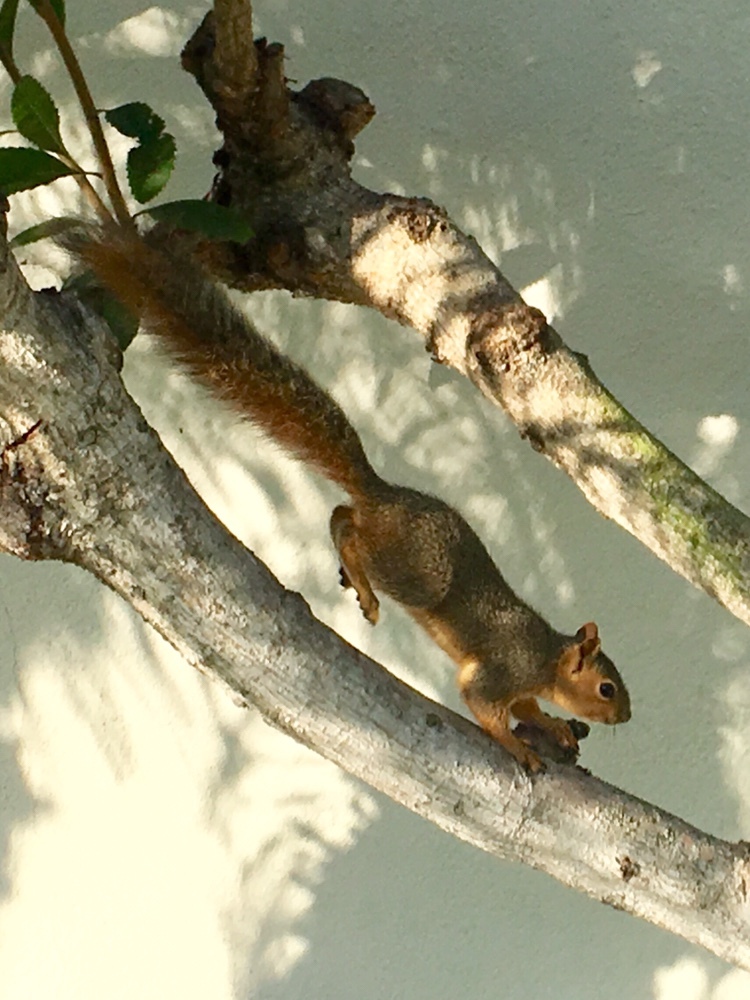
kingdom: Animalia
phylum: Chordata
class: Mammalia
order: Rodentia
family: Sciuridae
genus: Sciurus
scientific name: Sciurus niger
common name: Fox squirrel
